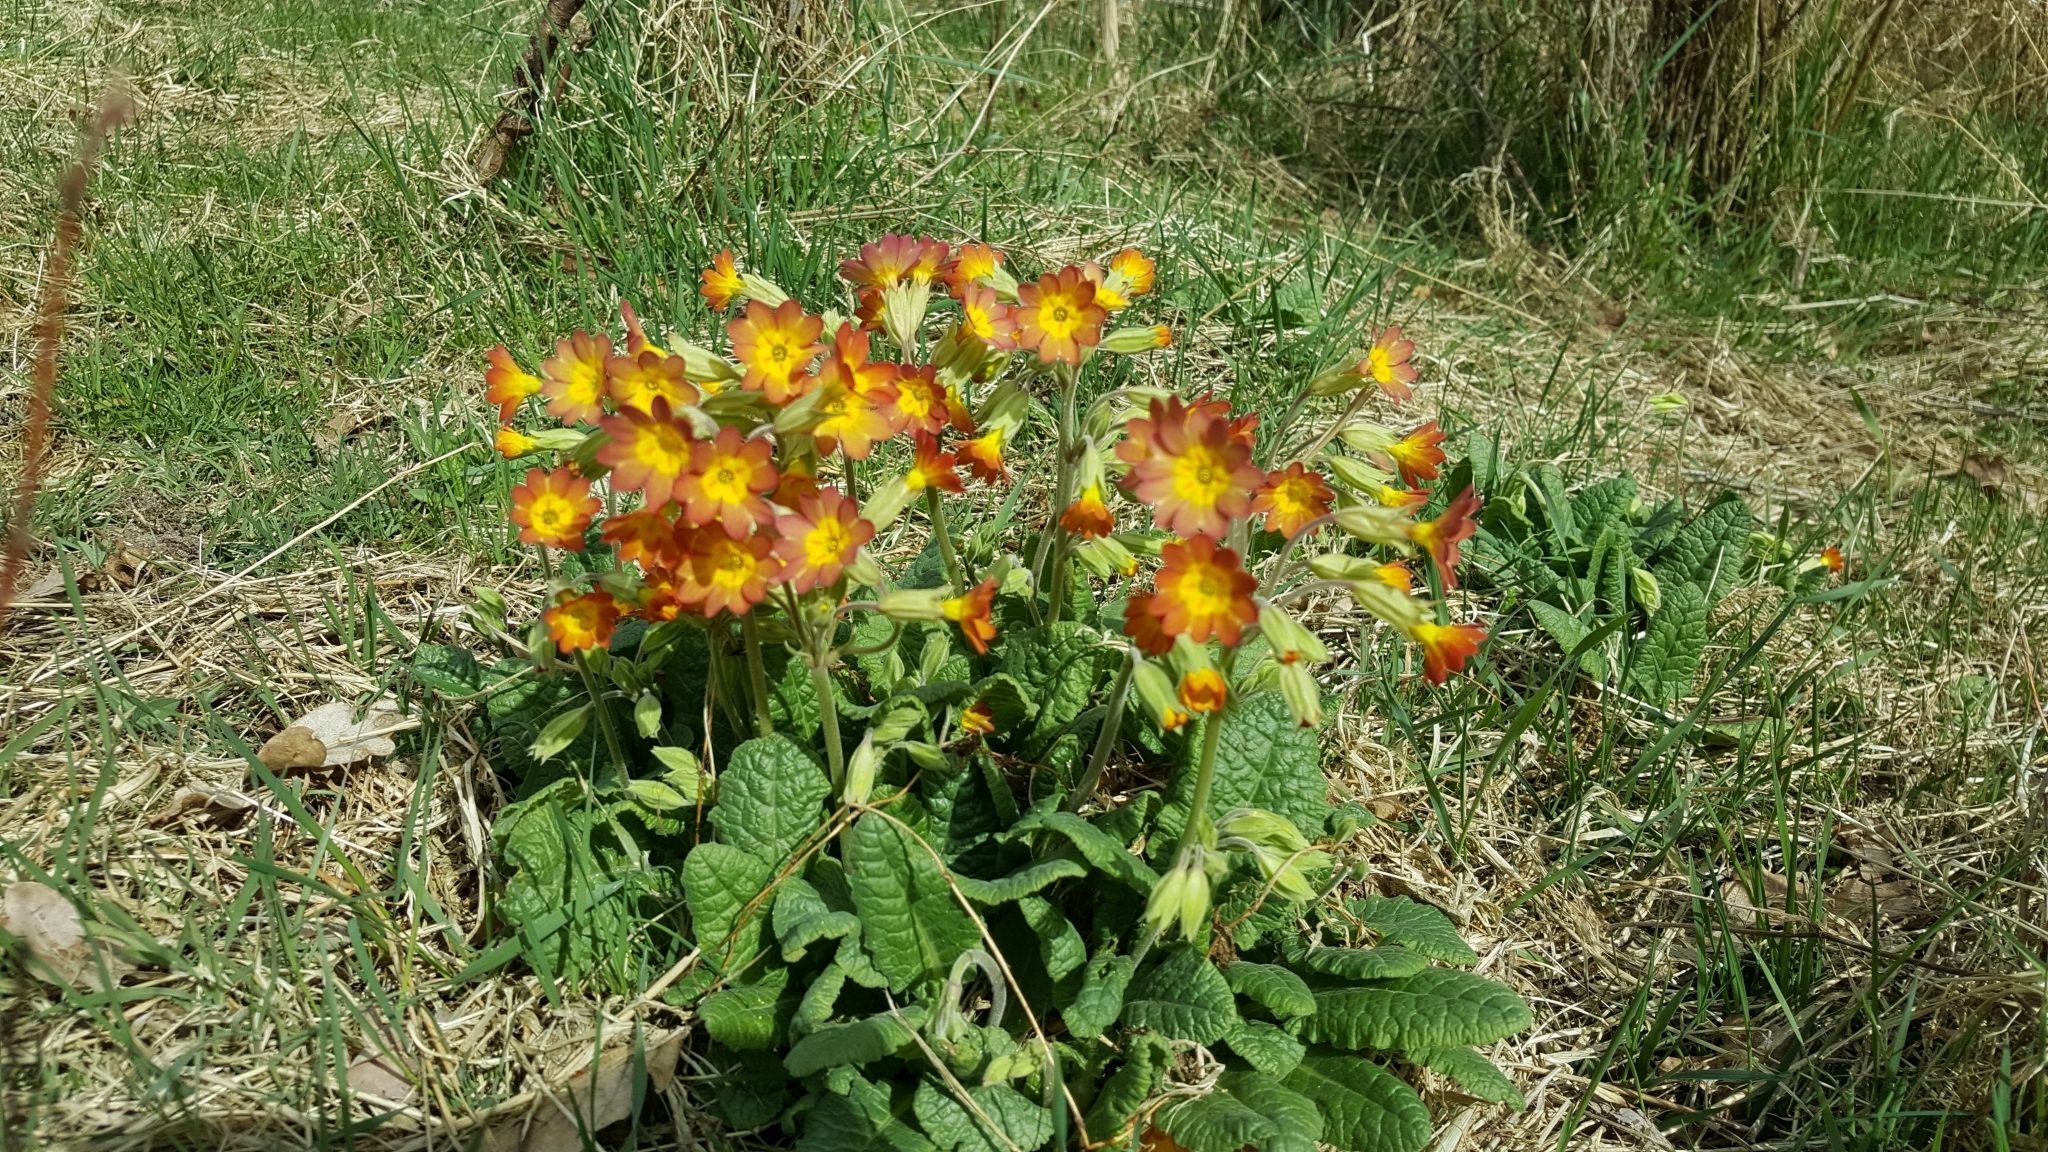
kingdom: Plantae
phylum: Tracheophyta
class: Magnoliopsida
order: Ericales
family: Primulaceae
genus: Primula
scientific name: Primula veris
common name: Cowslip
